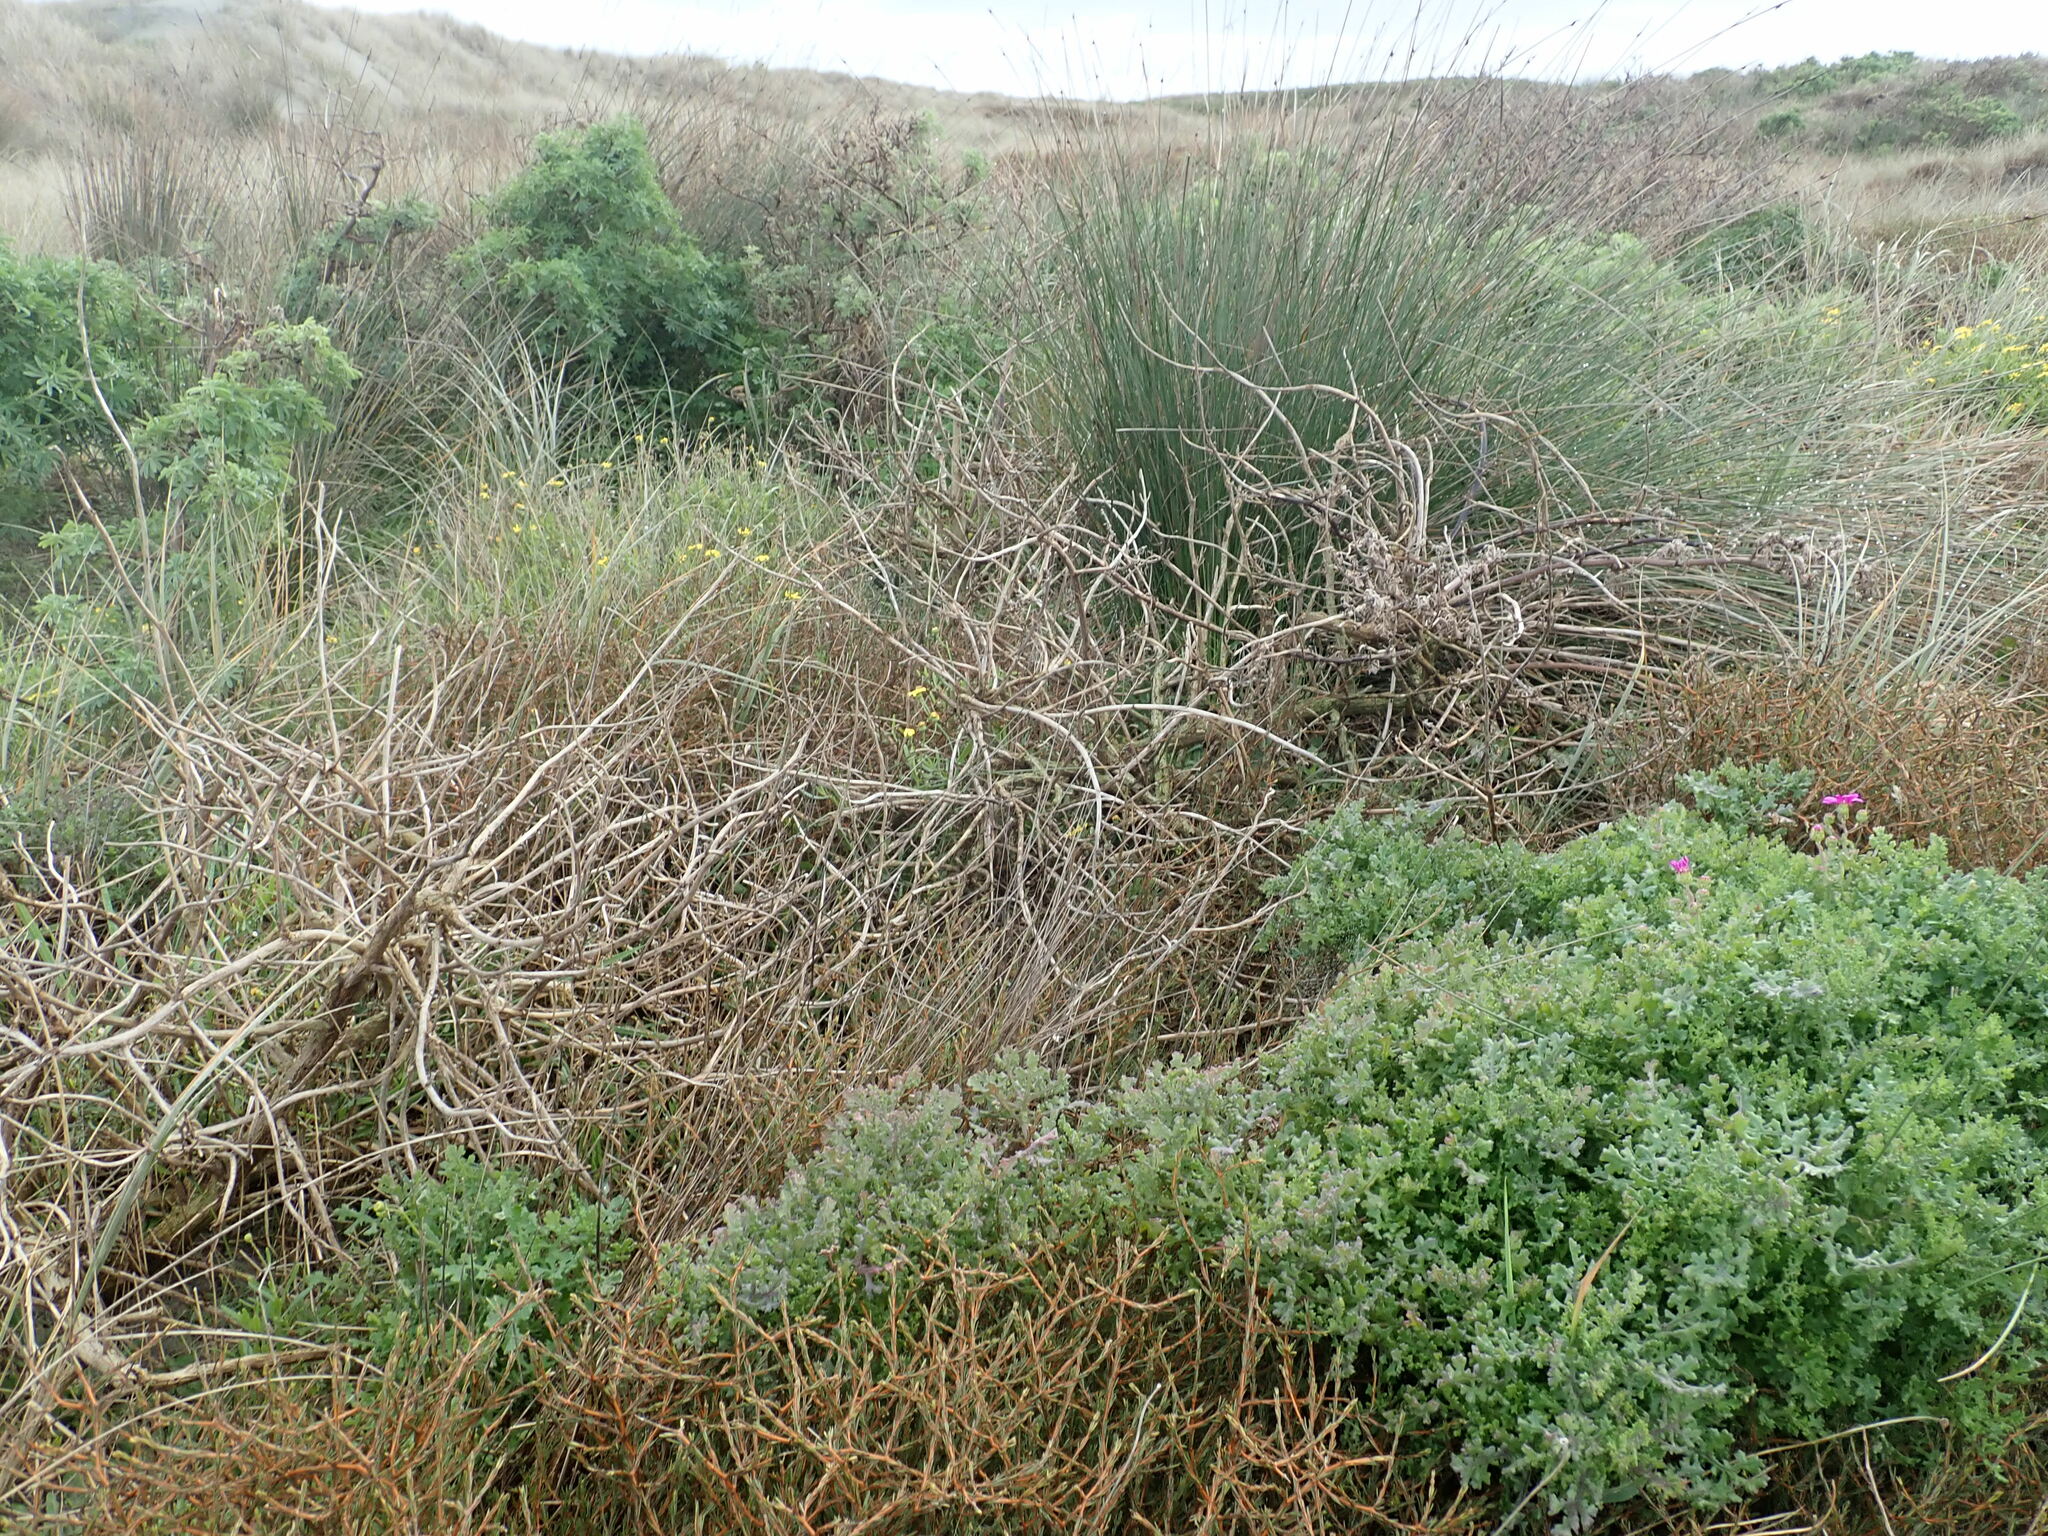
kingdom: Plantae
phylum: Tracheophyta
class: Magnoliopsida
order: Asterales
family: Asteraceae
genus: Senecio
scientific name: Senecio elegans
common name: Purple groundsel
